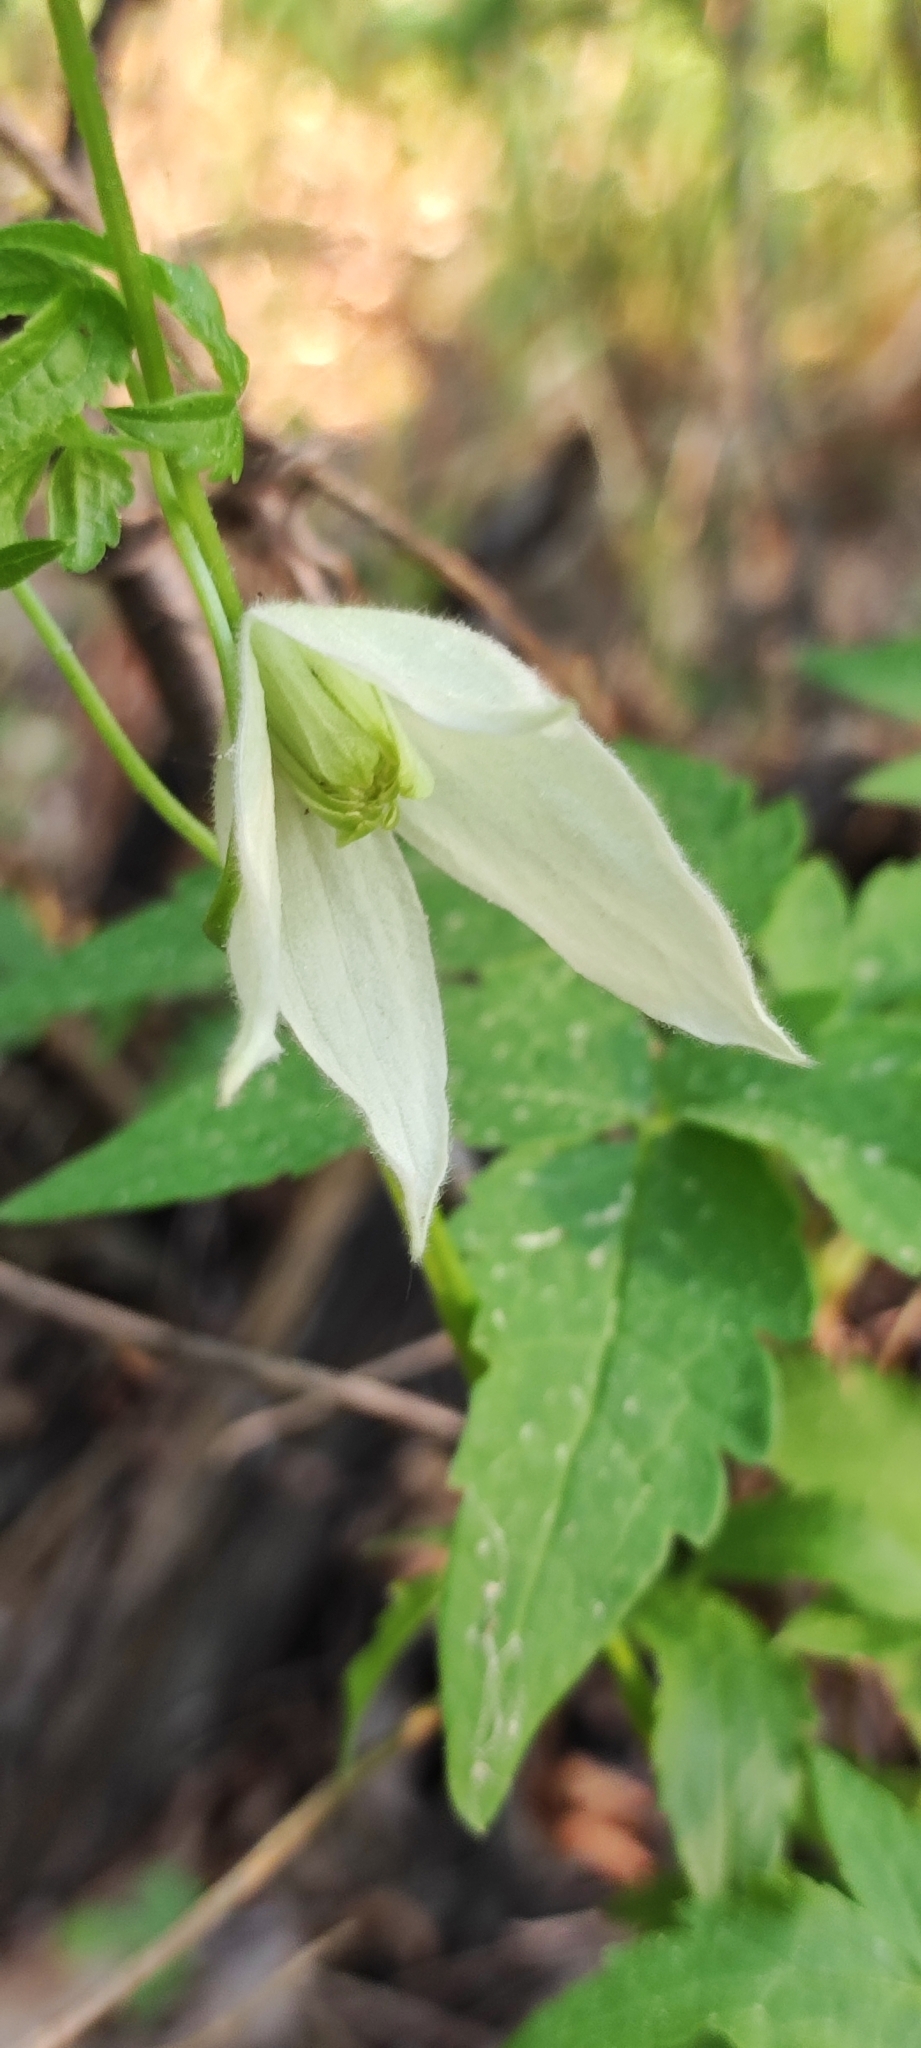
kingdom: Plantae
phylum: Tracheophyta
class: Magnoliopsida
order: Ranunculales
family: Ranunculaceae
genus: Clematis
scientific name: Clematis sibirica
